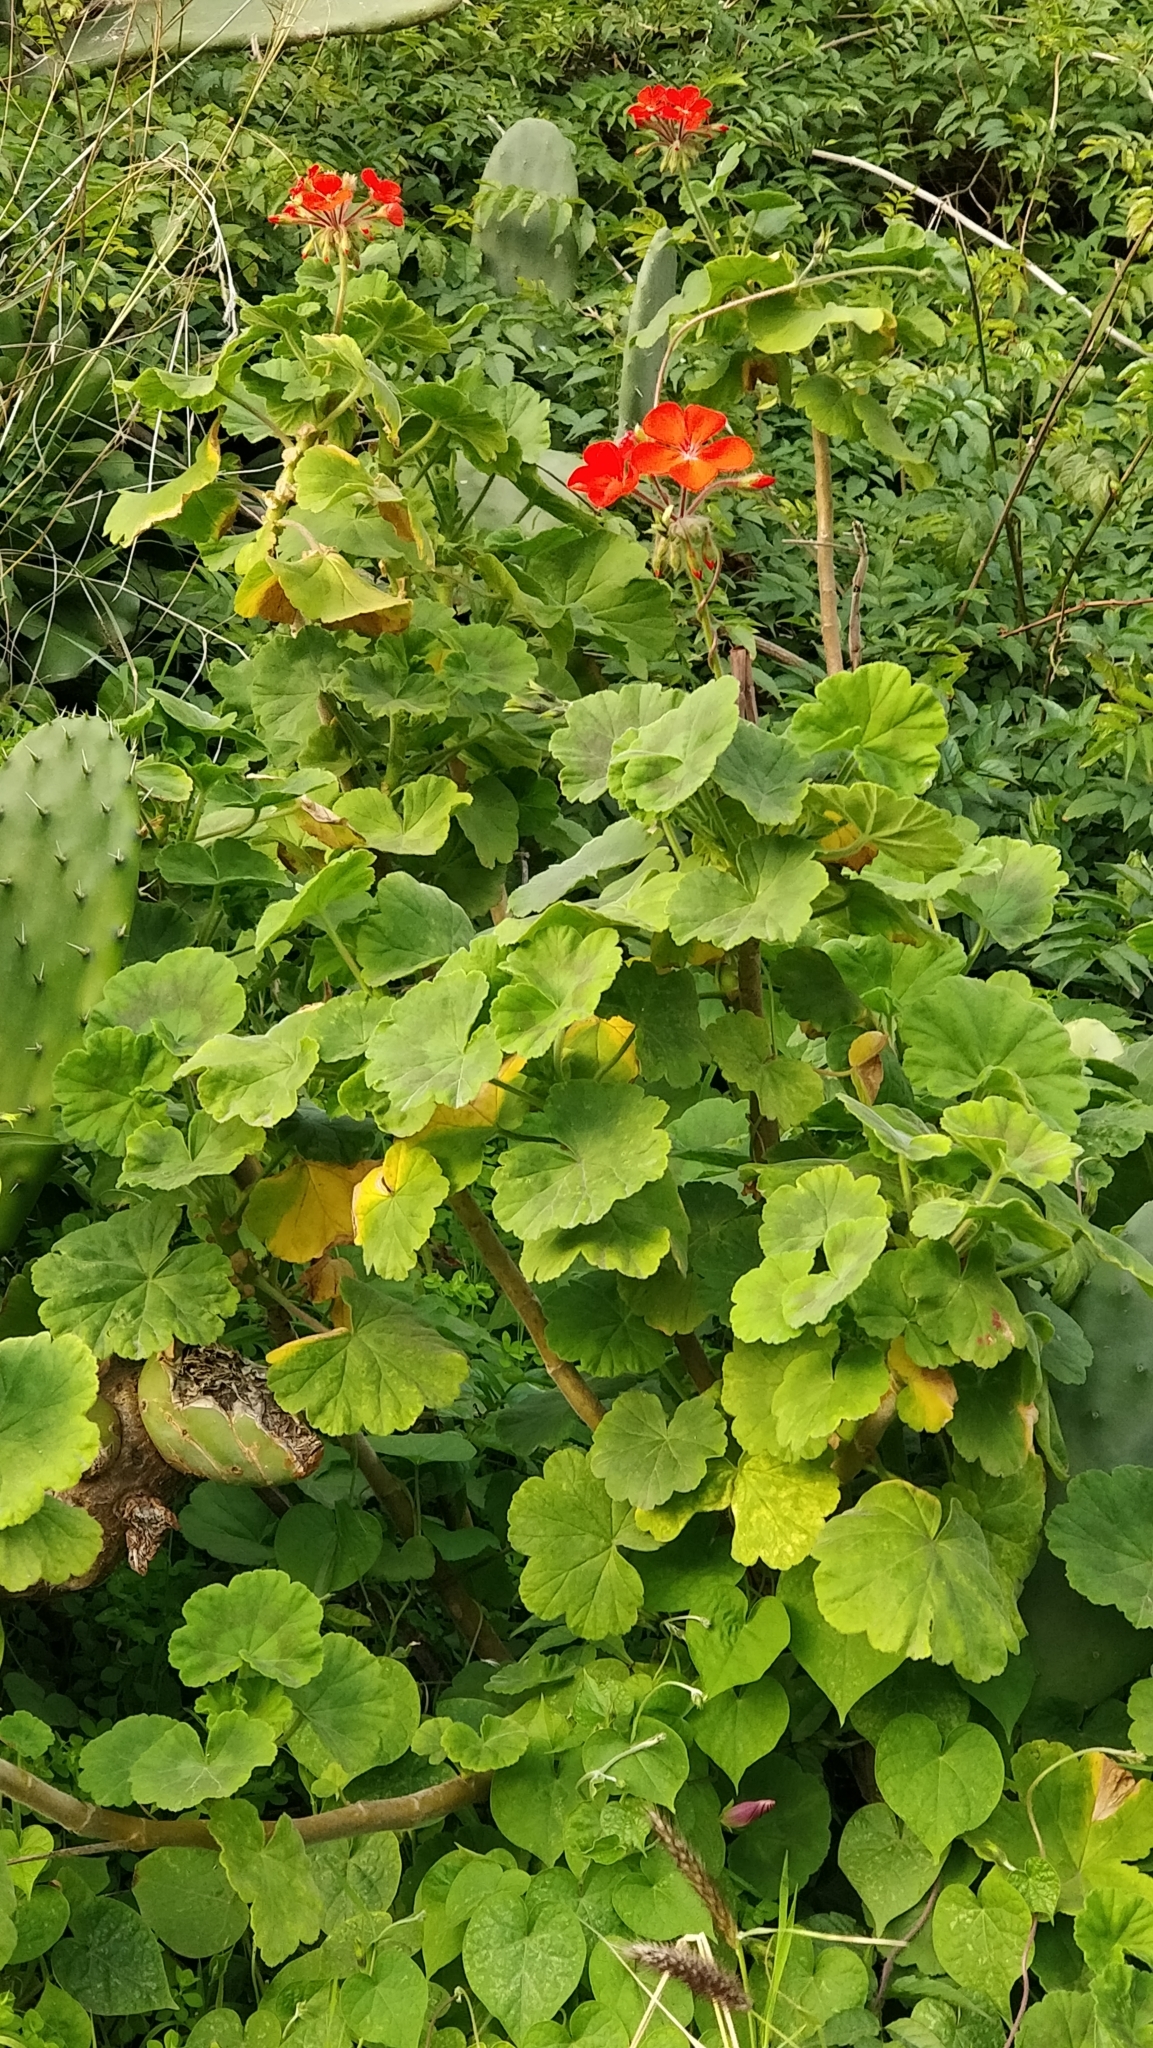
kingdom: Plantae
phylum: Tracheophyta
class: Magnoliopsida
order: Geraniales
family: Geraniaceae
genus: Pelargonium
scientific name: Pelargonium hybridum
